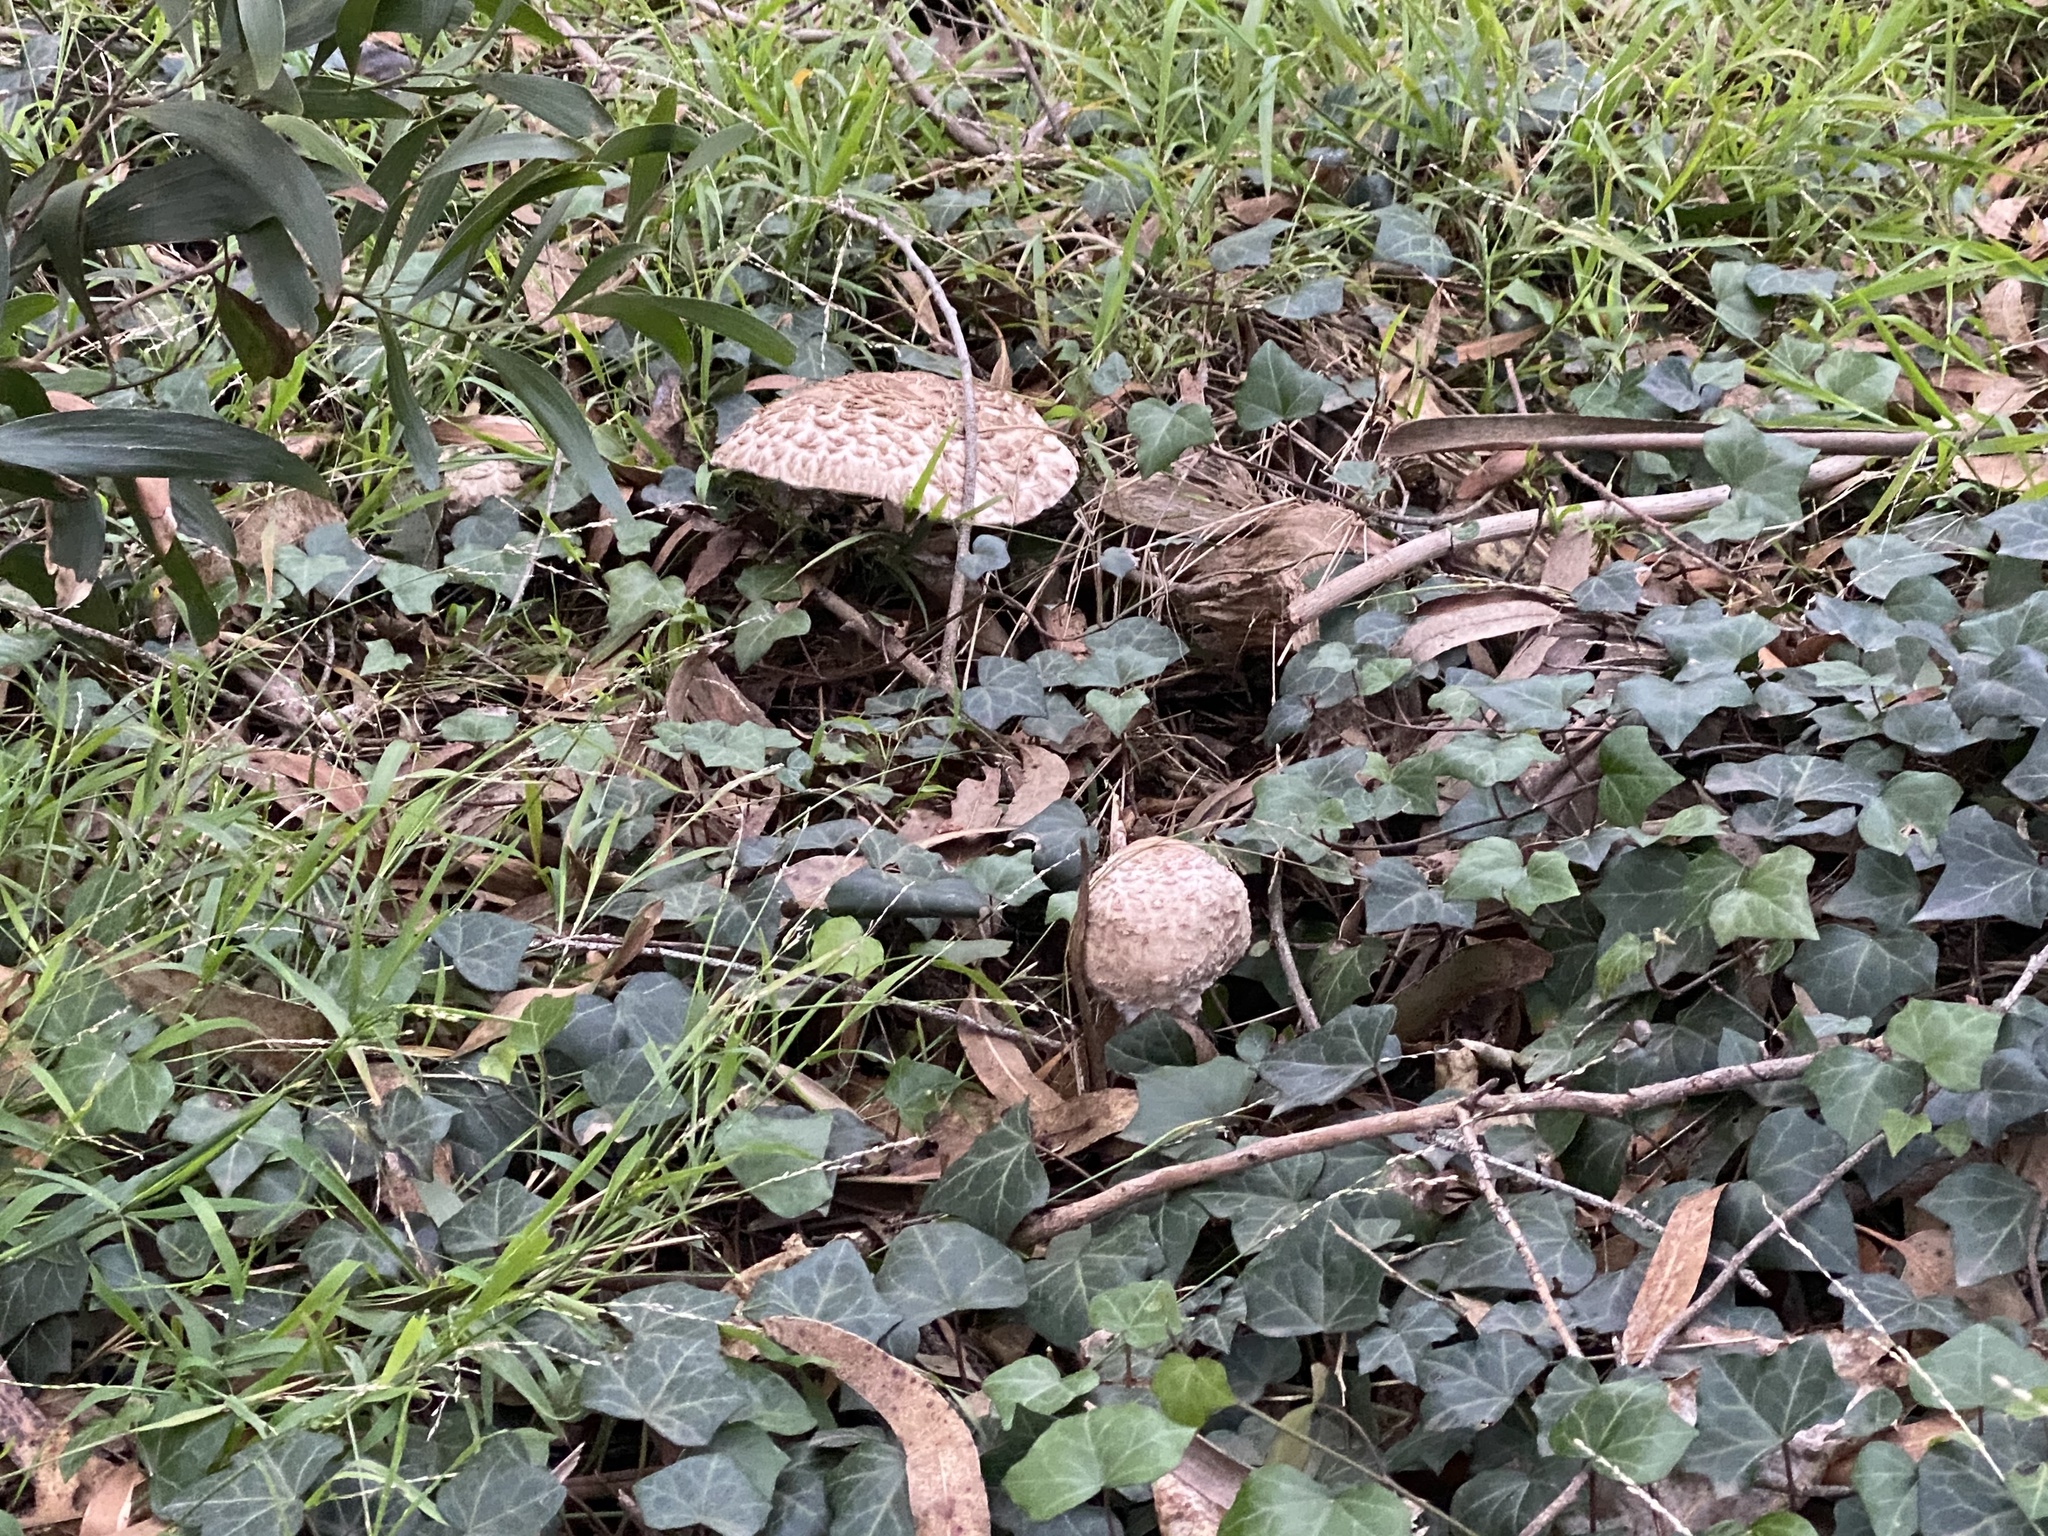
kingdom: Fungi
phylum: Basidiomycota
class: Agaricomycetes
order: Agaricales
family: Agaricaceae
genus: Chlorophyllum
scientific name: Chlorophyllum olivieri
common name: Conifer parasol
